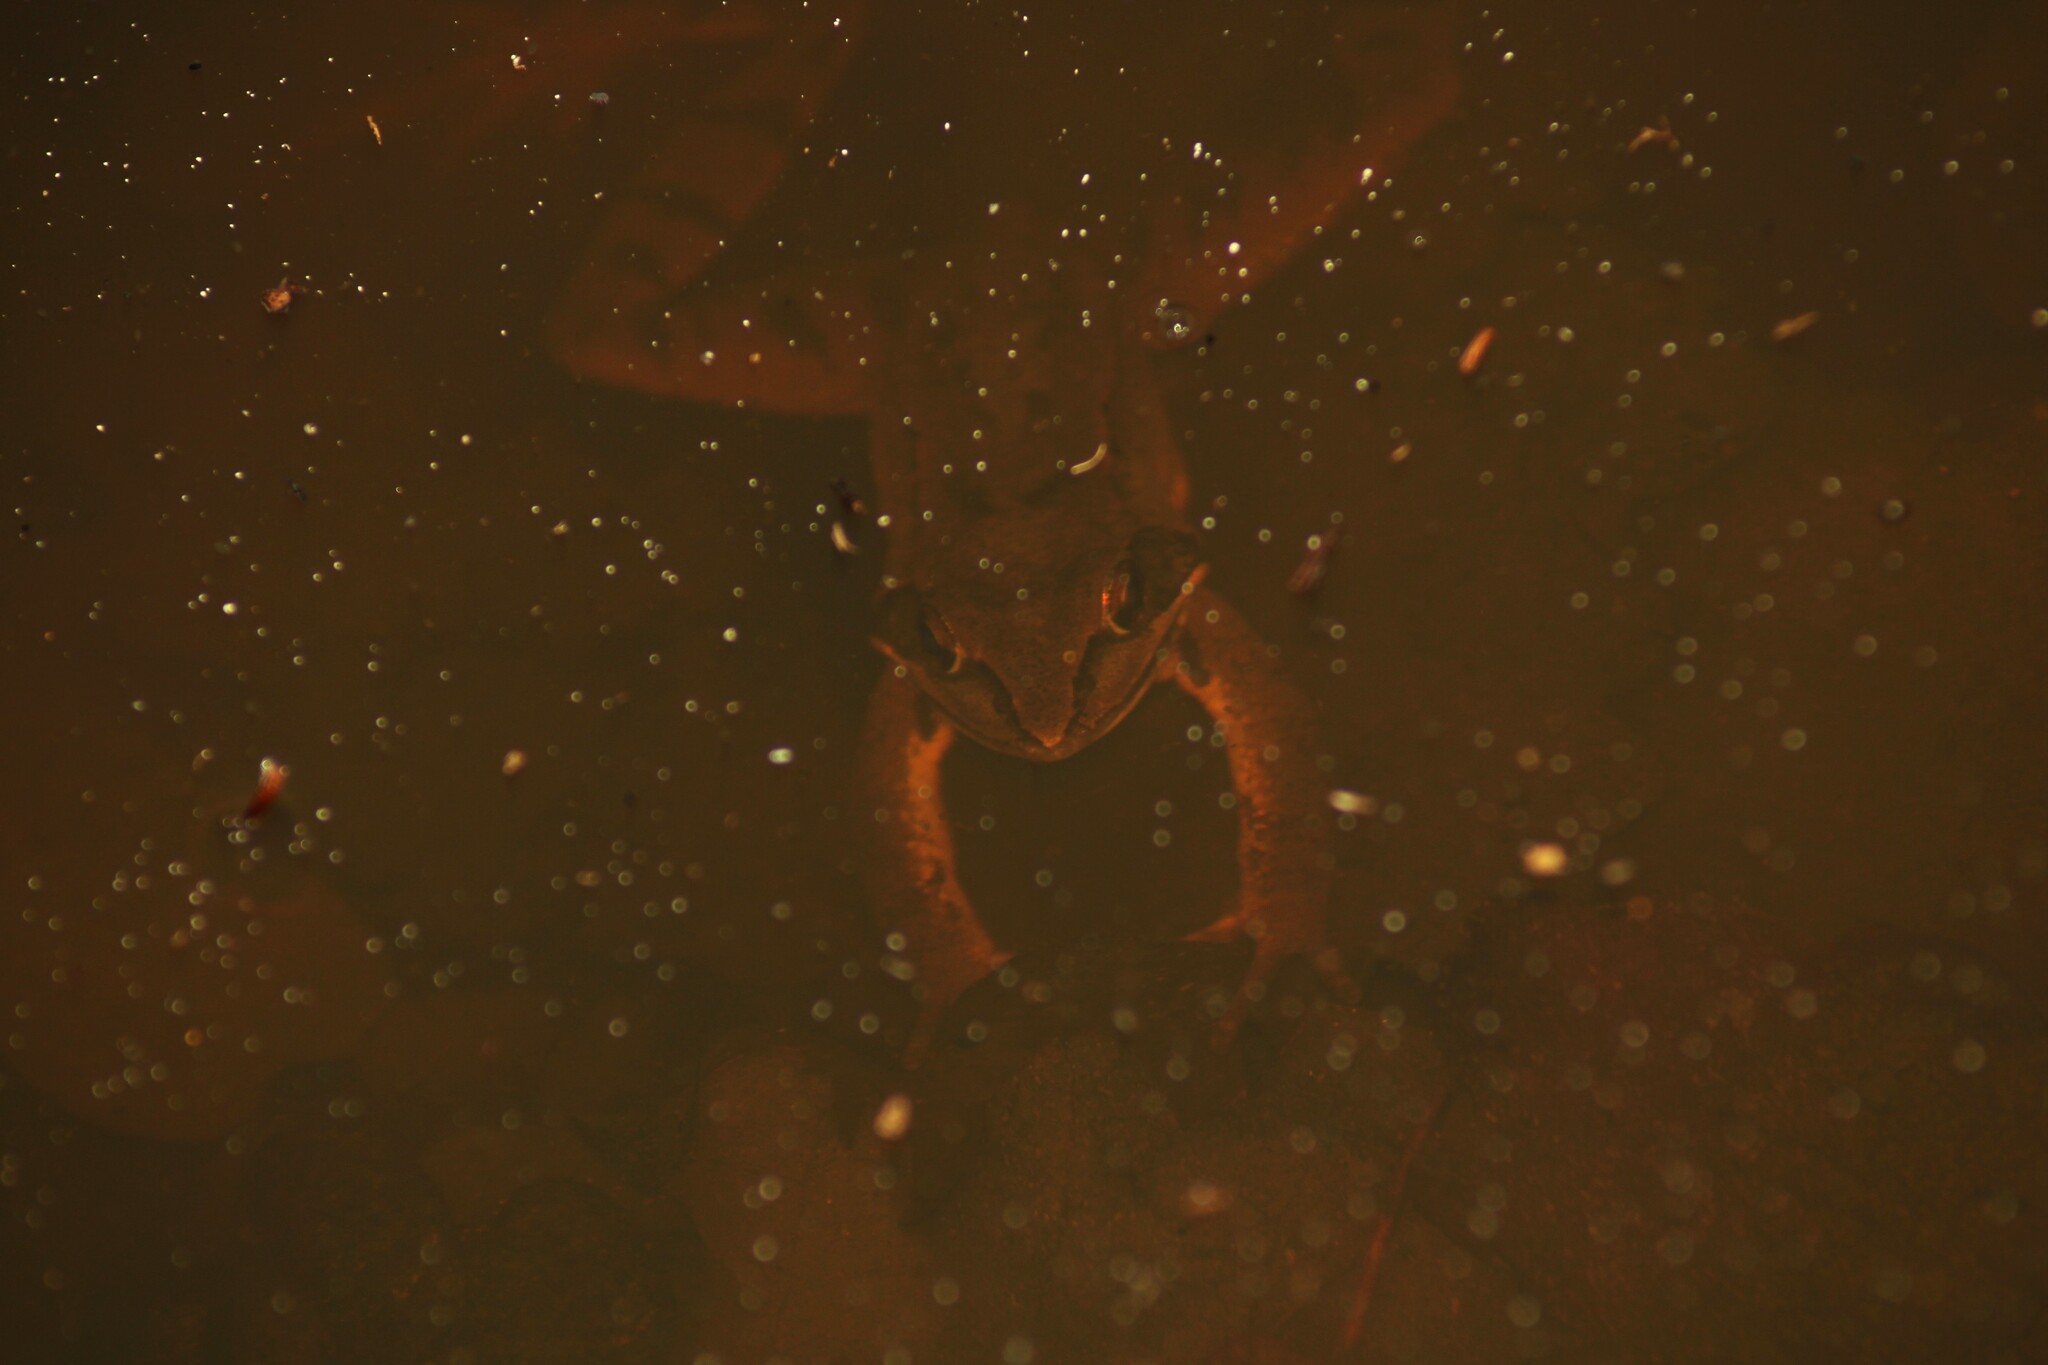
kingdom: Animalia
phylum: Chordata
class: Amphibia
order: Anura
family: Ranidae
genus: Rana
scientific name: Rana dalmatina
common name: Agile frog
